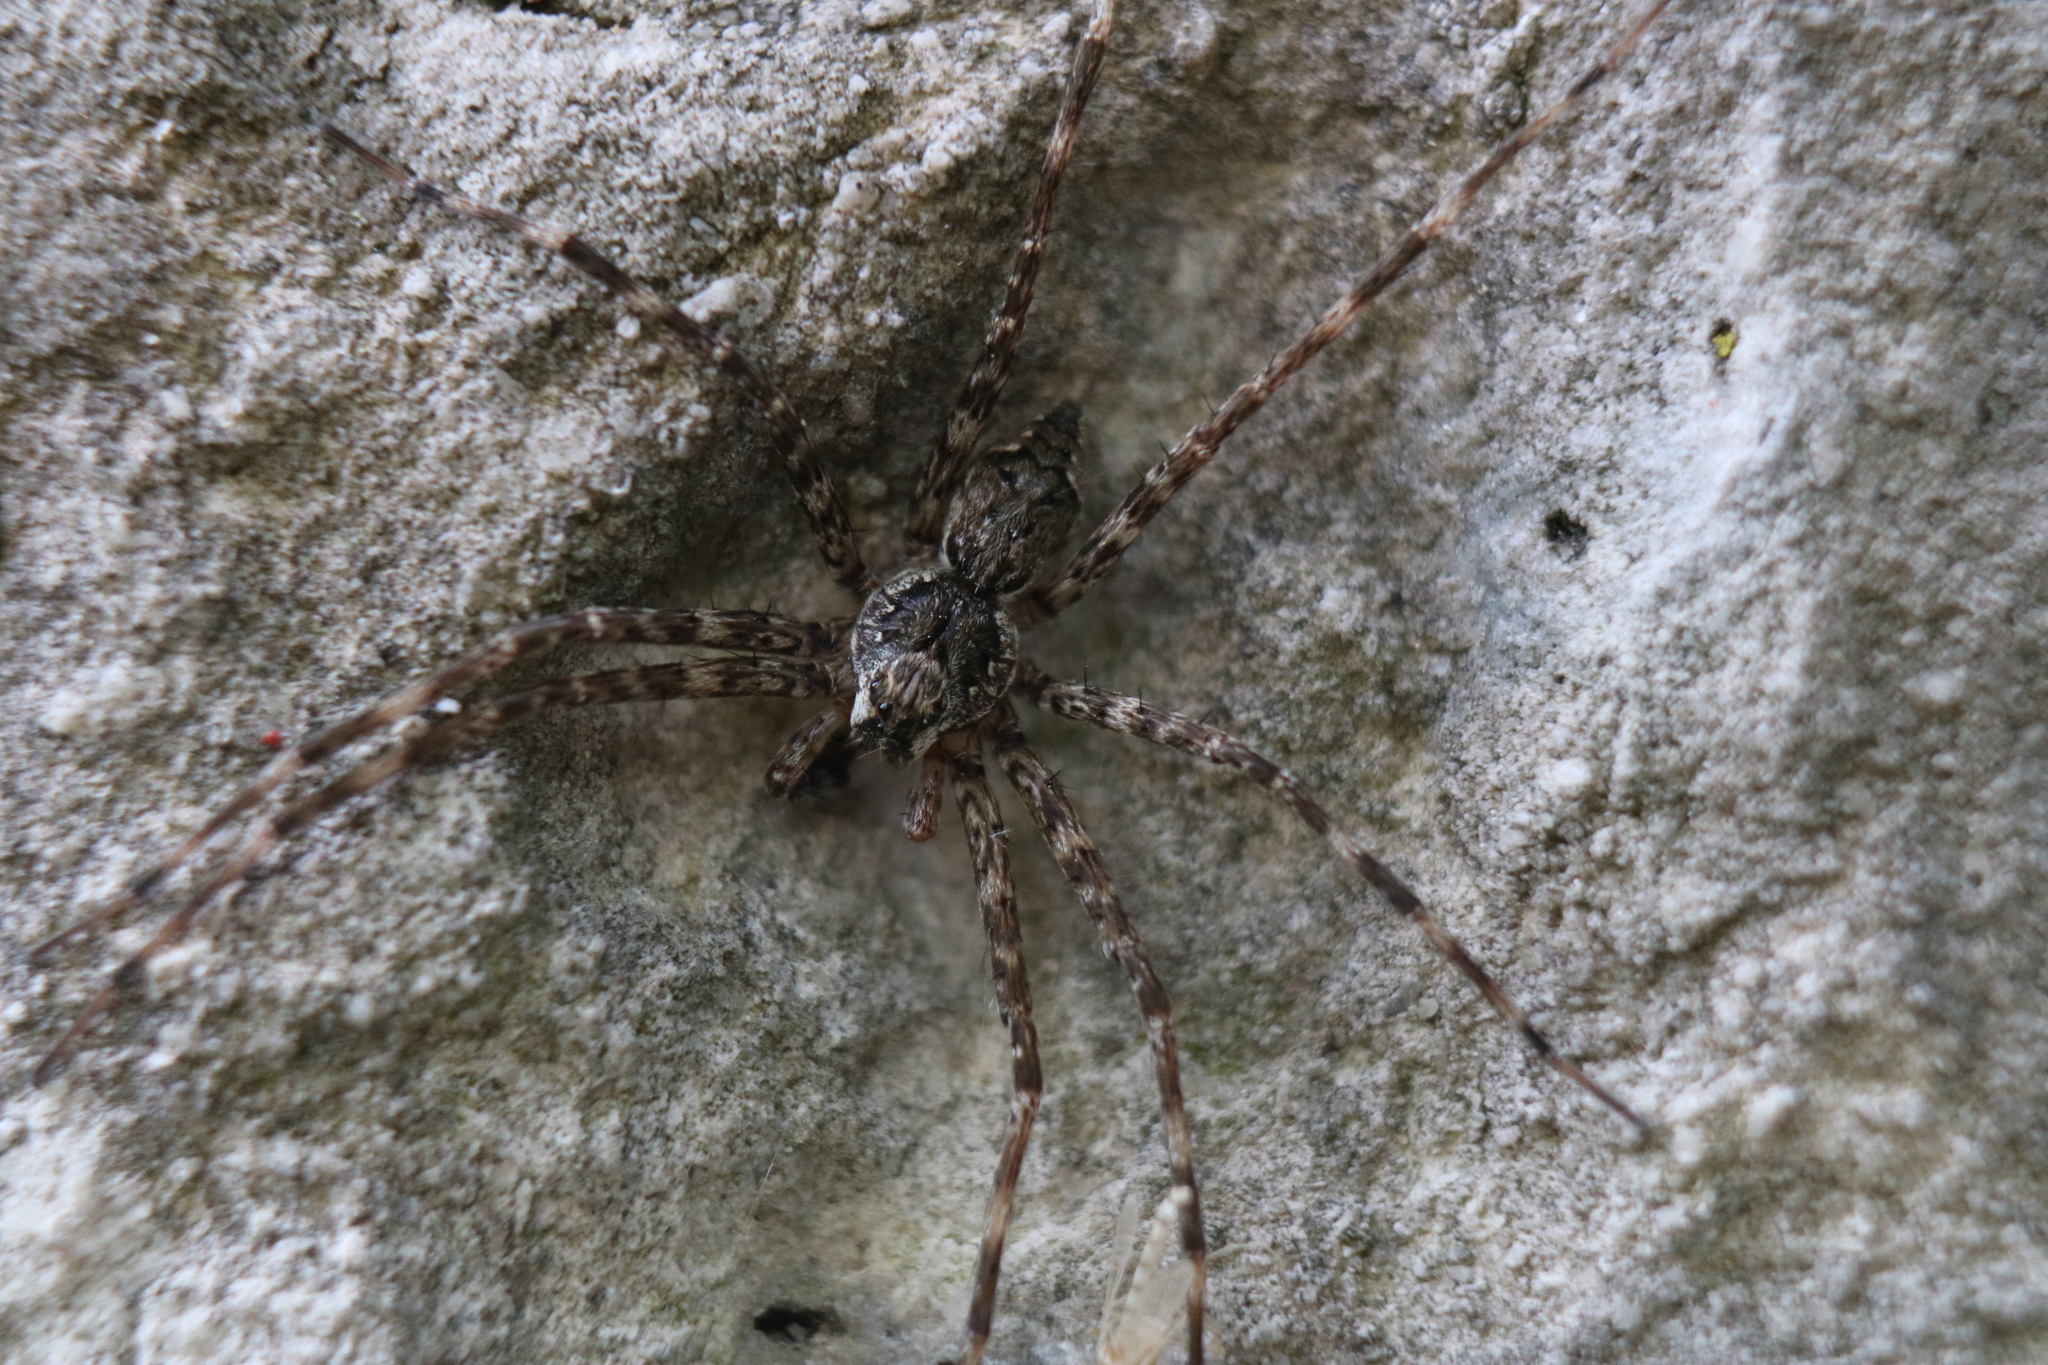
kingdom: Animalia
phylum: Arthropoda
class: Arachnida
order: Araneae
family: Pisauridae
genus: Dolomedes
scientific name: Dolomedes tenebrosus
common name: Dark fishing spider
